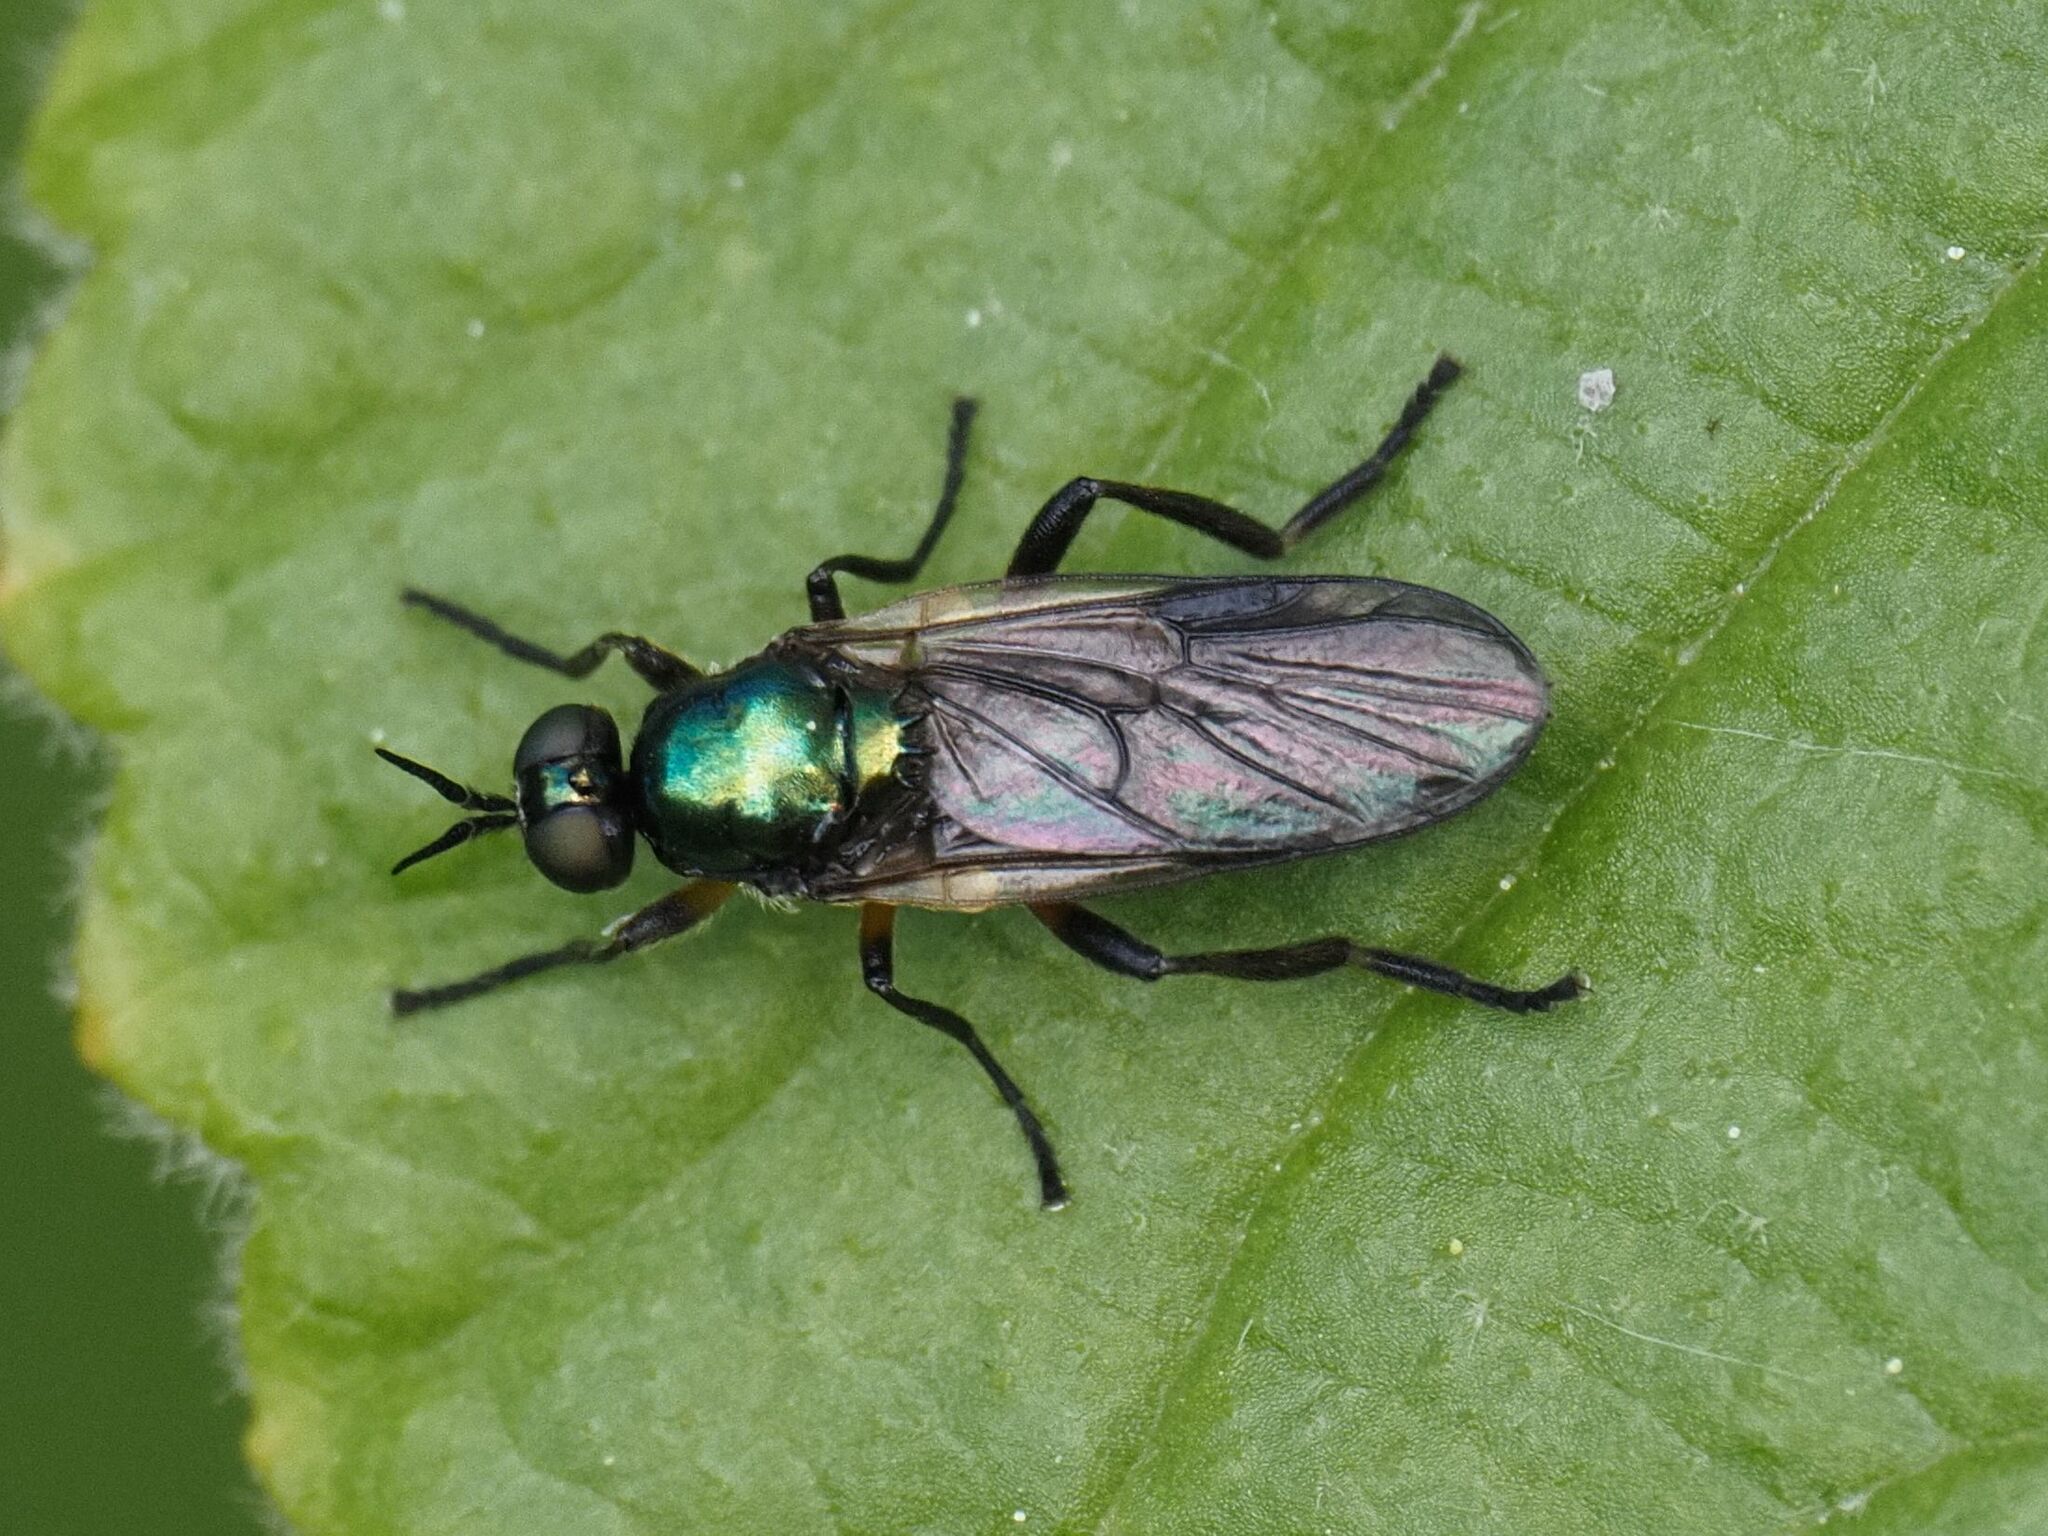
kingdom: Animalia
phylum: Arthropoda
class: Insecta
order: Diptera
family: Stratiomyidae
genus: Actina
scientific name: Actina chalybea
